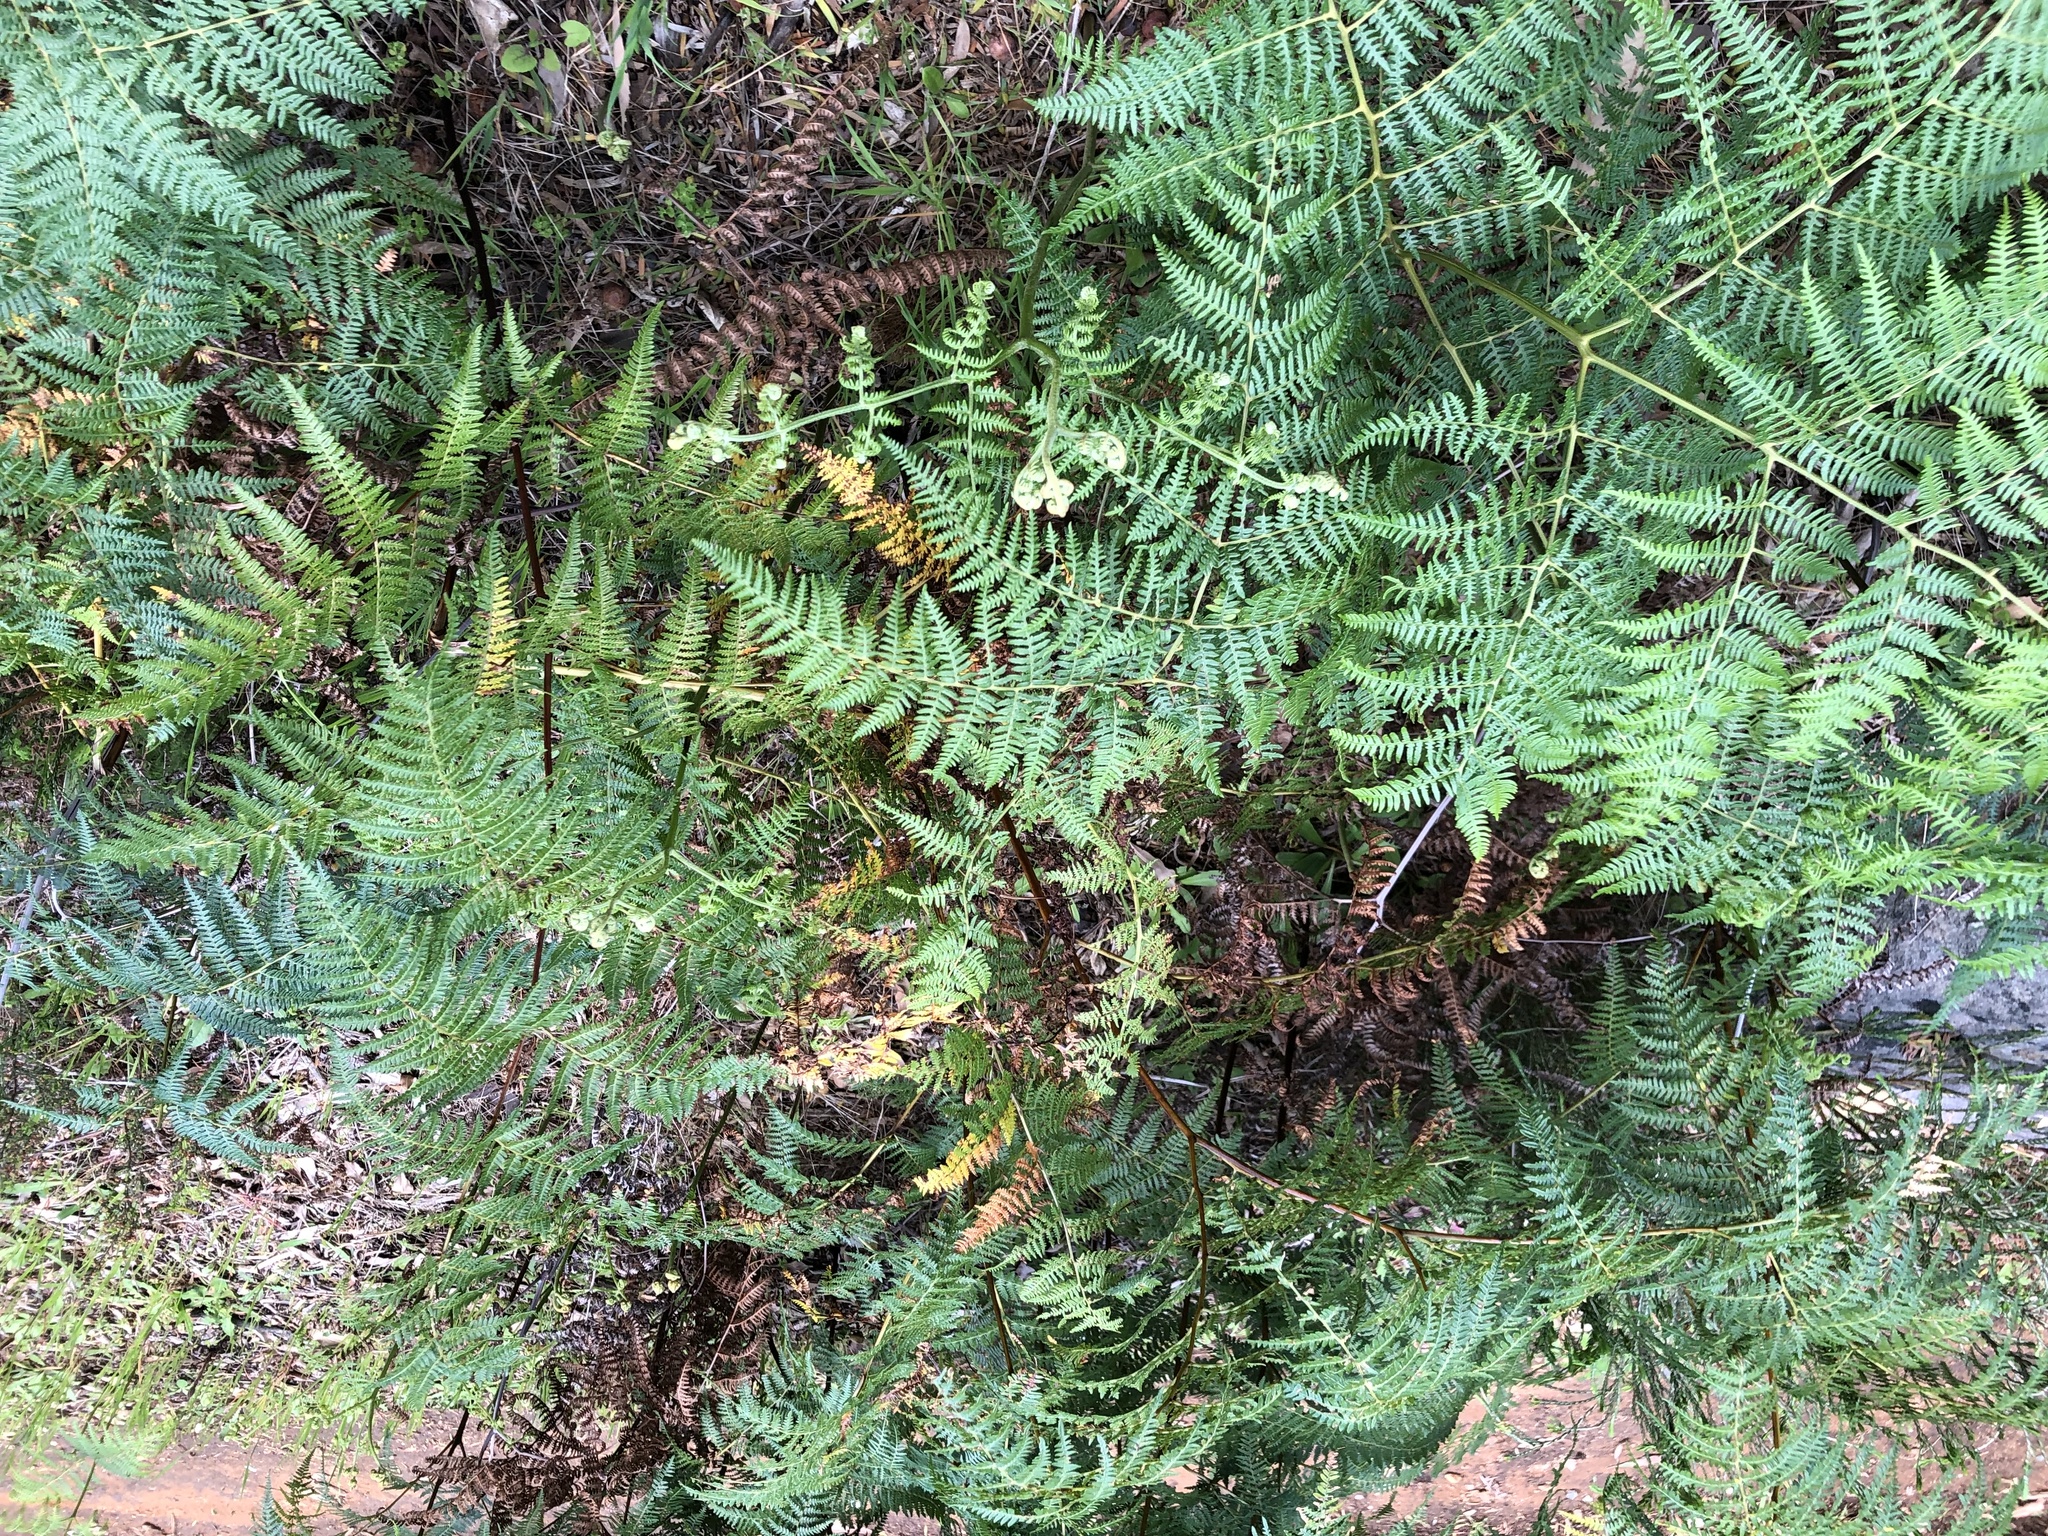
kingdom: Plantae
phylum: Tracheophyta
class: Polypodiopsida
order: Polypodiales
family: Dennstaedtiaceae
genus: Pteridium
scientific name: Pteridium aquilinum
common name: Bracken
